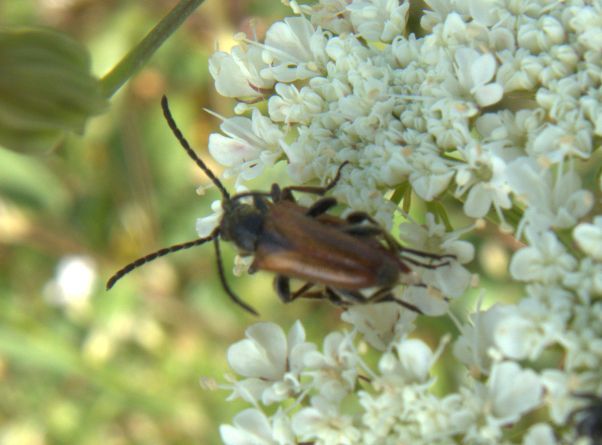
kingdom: Animalia
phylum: Arthropoda
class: Insecta
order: Coleoptera
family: Cerambycidae
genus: Pseudovadonia
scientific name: Pseudovadonia livida
